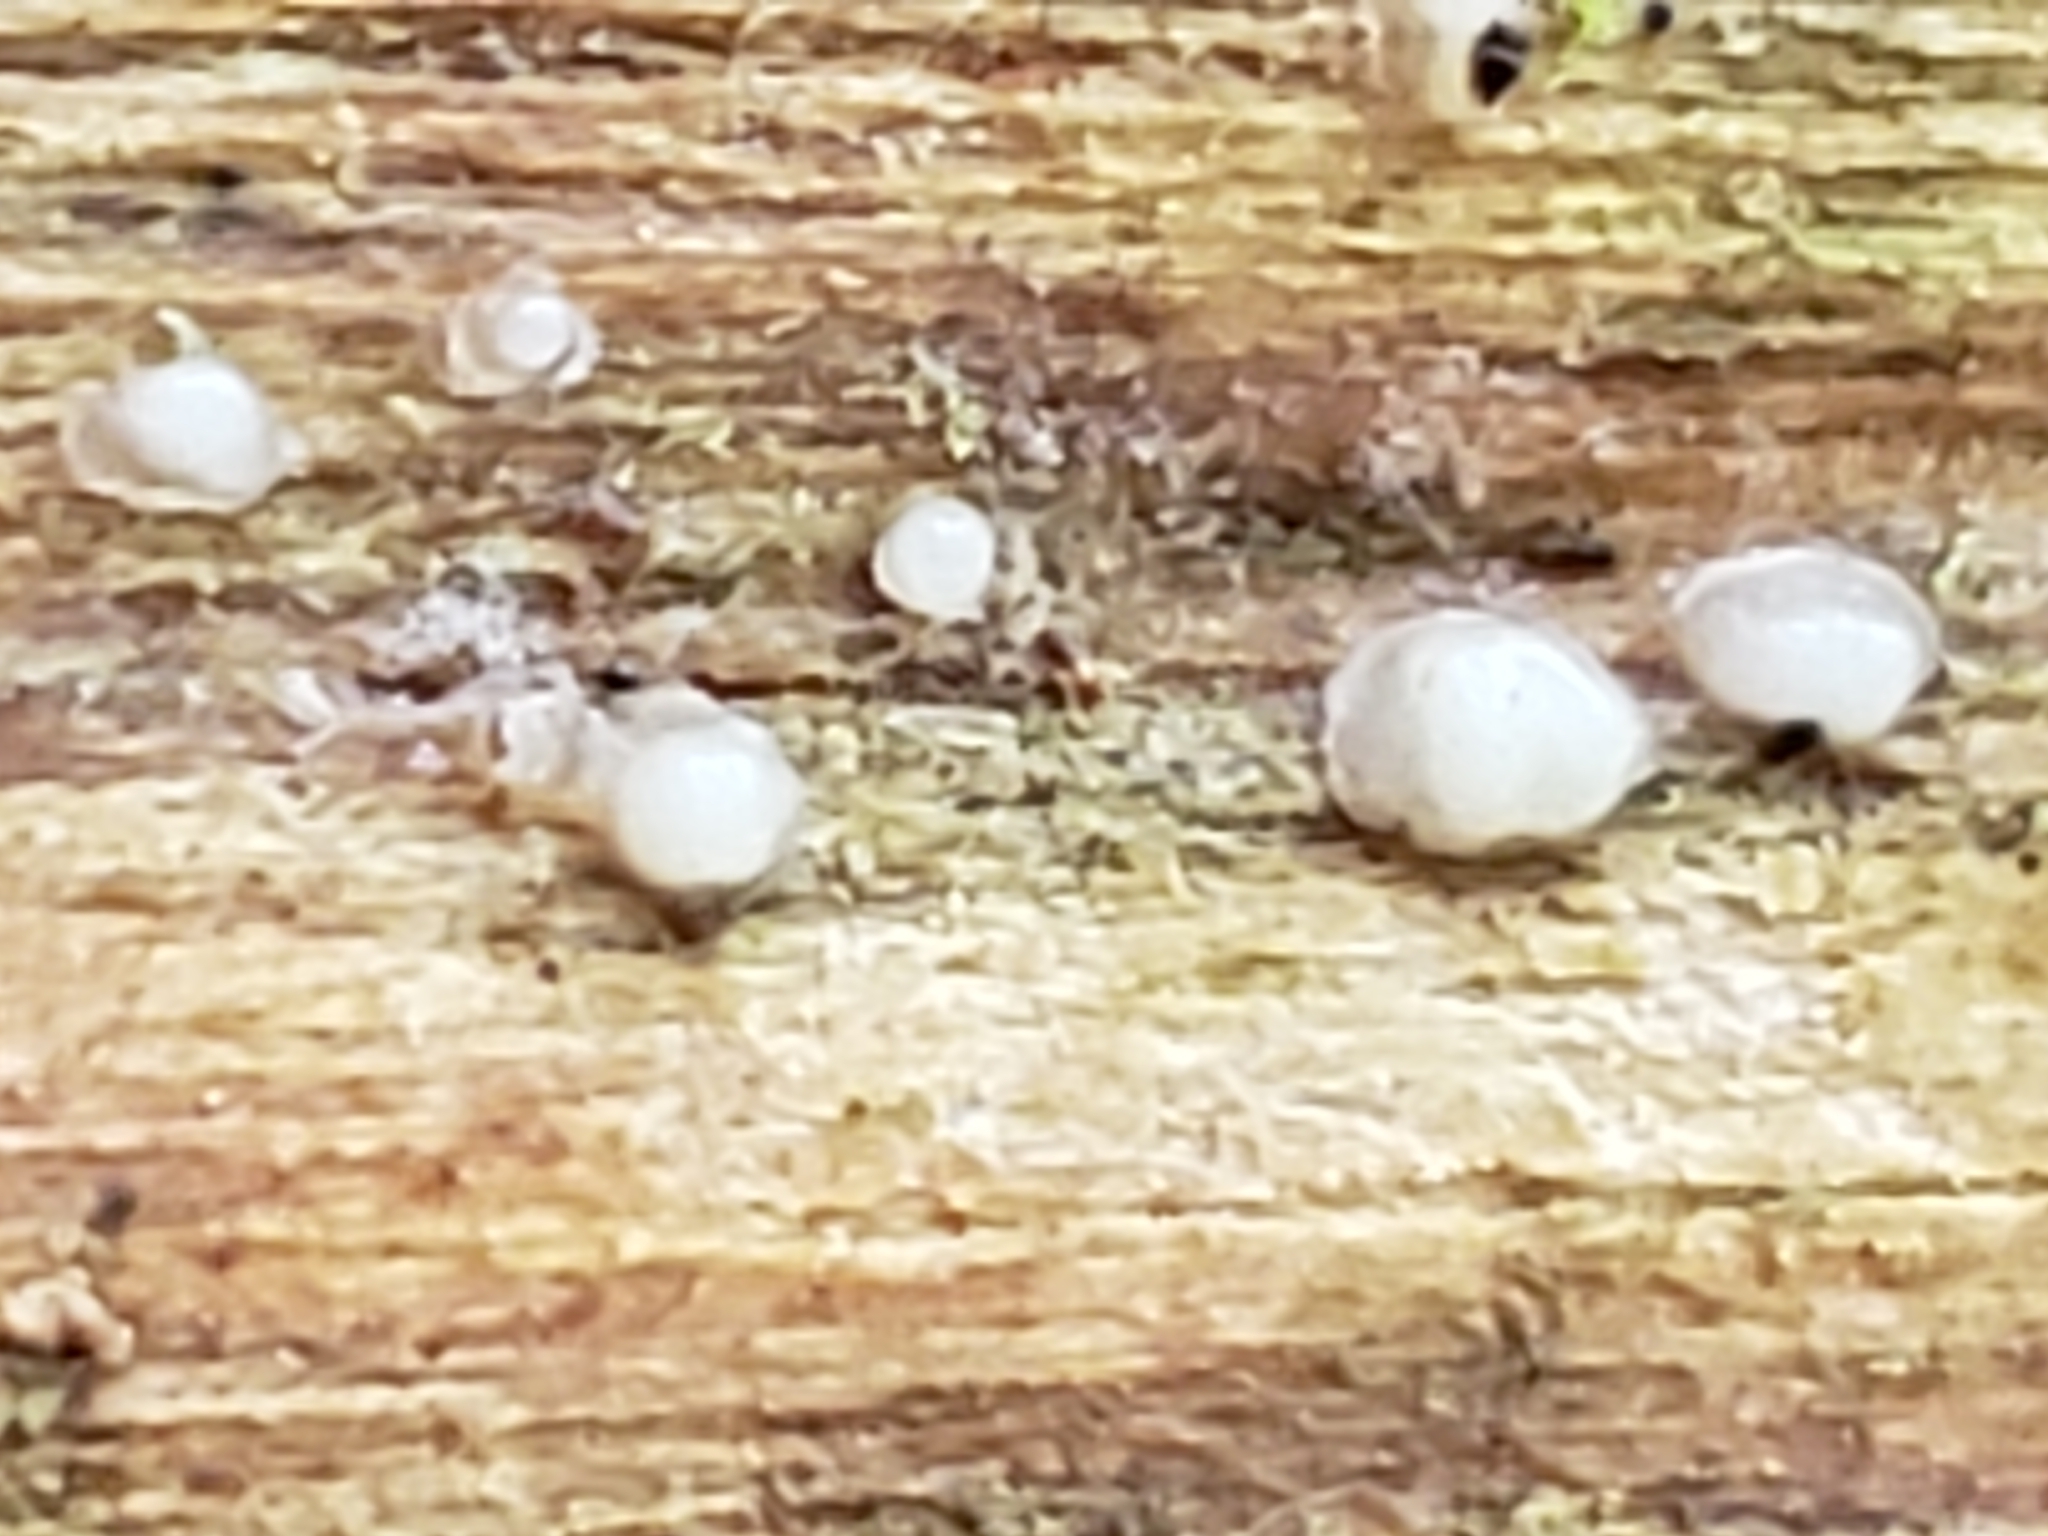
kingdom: Fungi
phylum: Basidiomycota
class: Atractiellomycetes
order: Atractiellales
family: Phleogenaceae
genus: Helicogloea
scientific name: Helicogloea compressa
